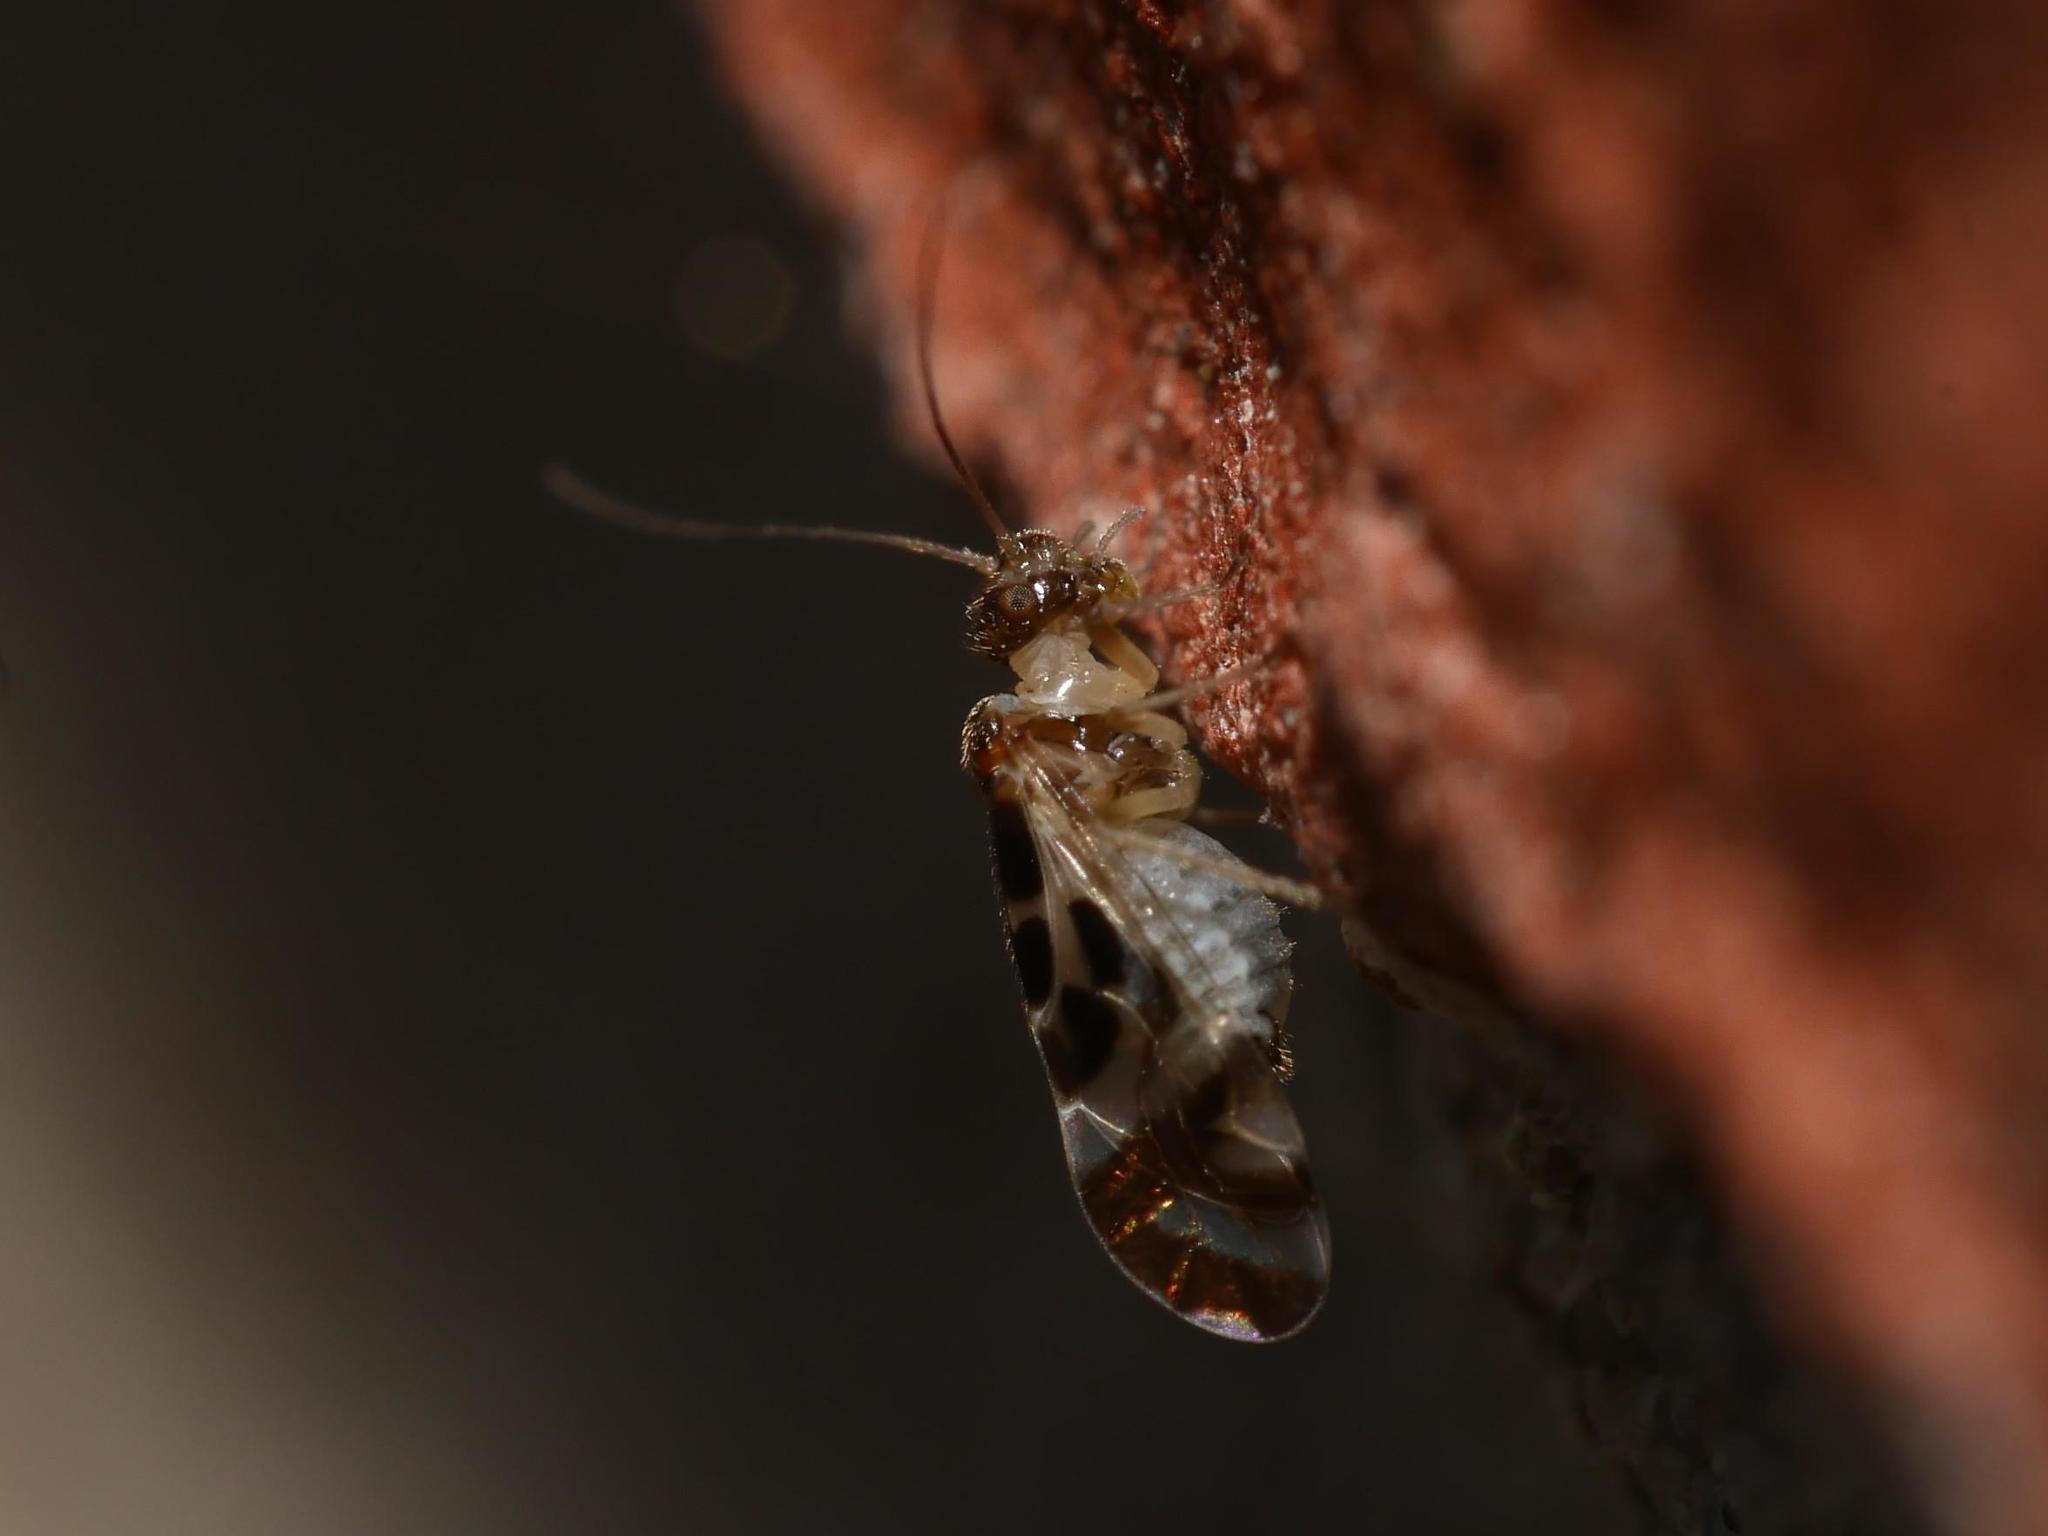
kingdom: Animalia
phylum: Arthropoda
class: Insecta
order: Psocodea
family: Stenopsocidae
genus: Graphopsocus
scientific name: Graphopsocus cruciatus
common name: Lizard bark louse
